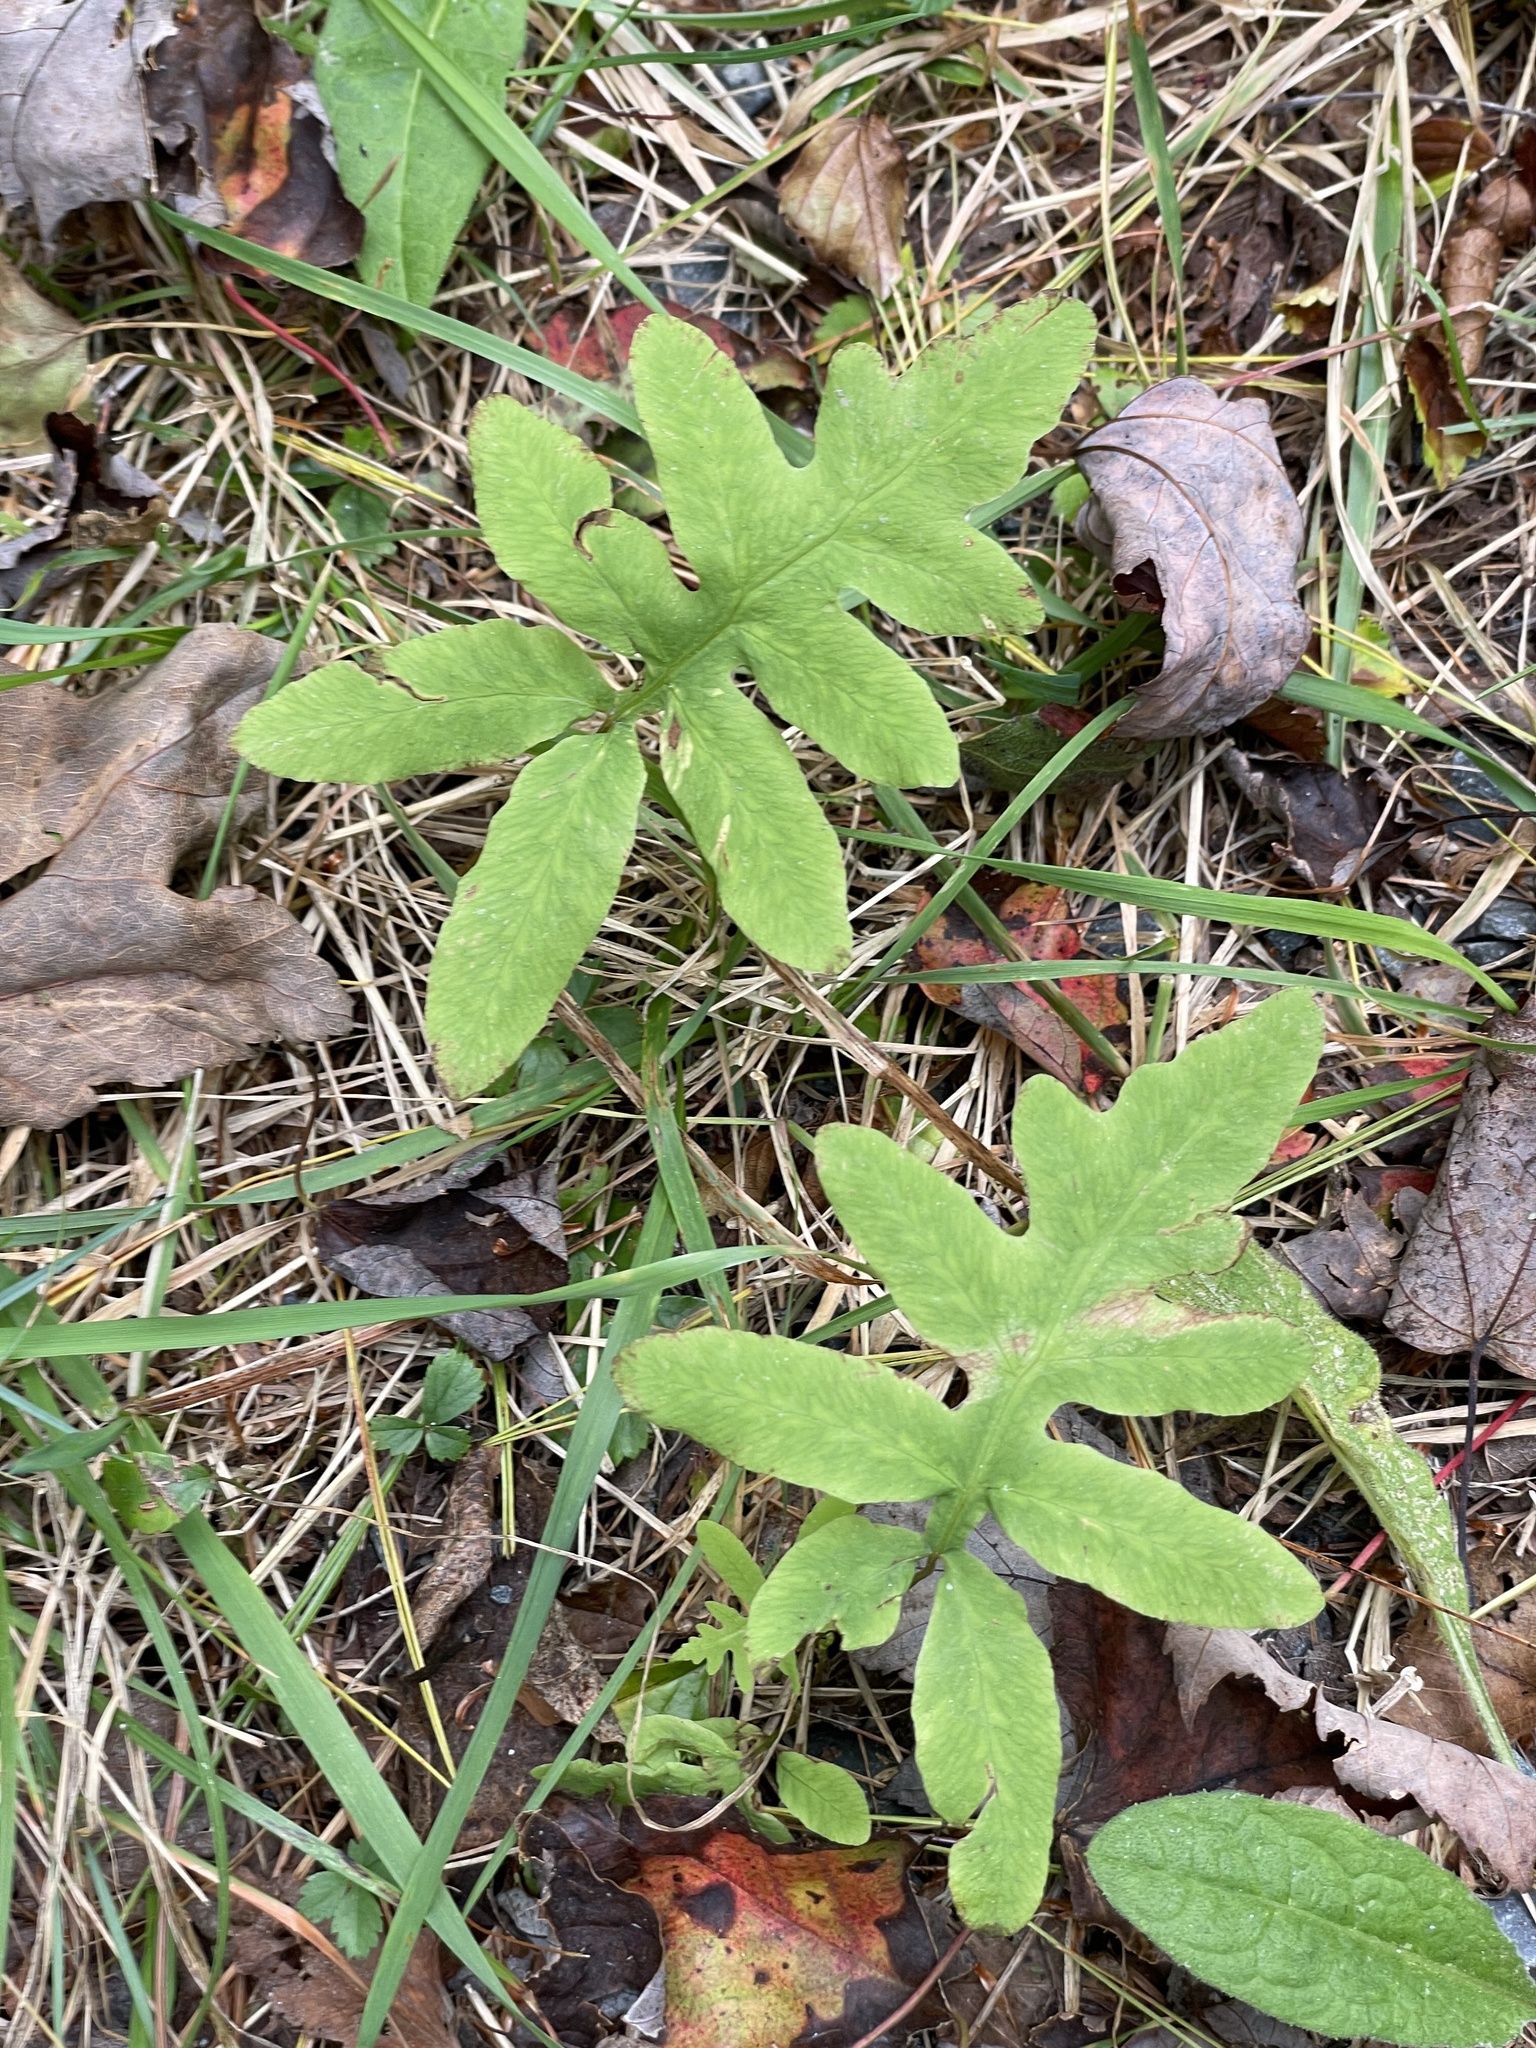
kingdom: Plantae
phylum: Tracheophyta
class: Polypodiopsida
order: Polypodiales
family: Onocleaceae
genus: Onoclea
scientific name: Onoclea sensibilis
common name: Sensitive fern
